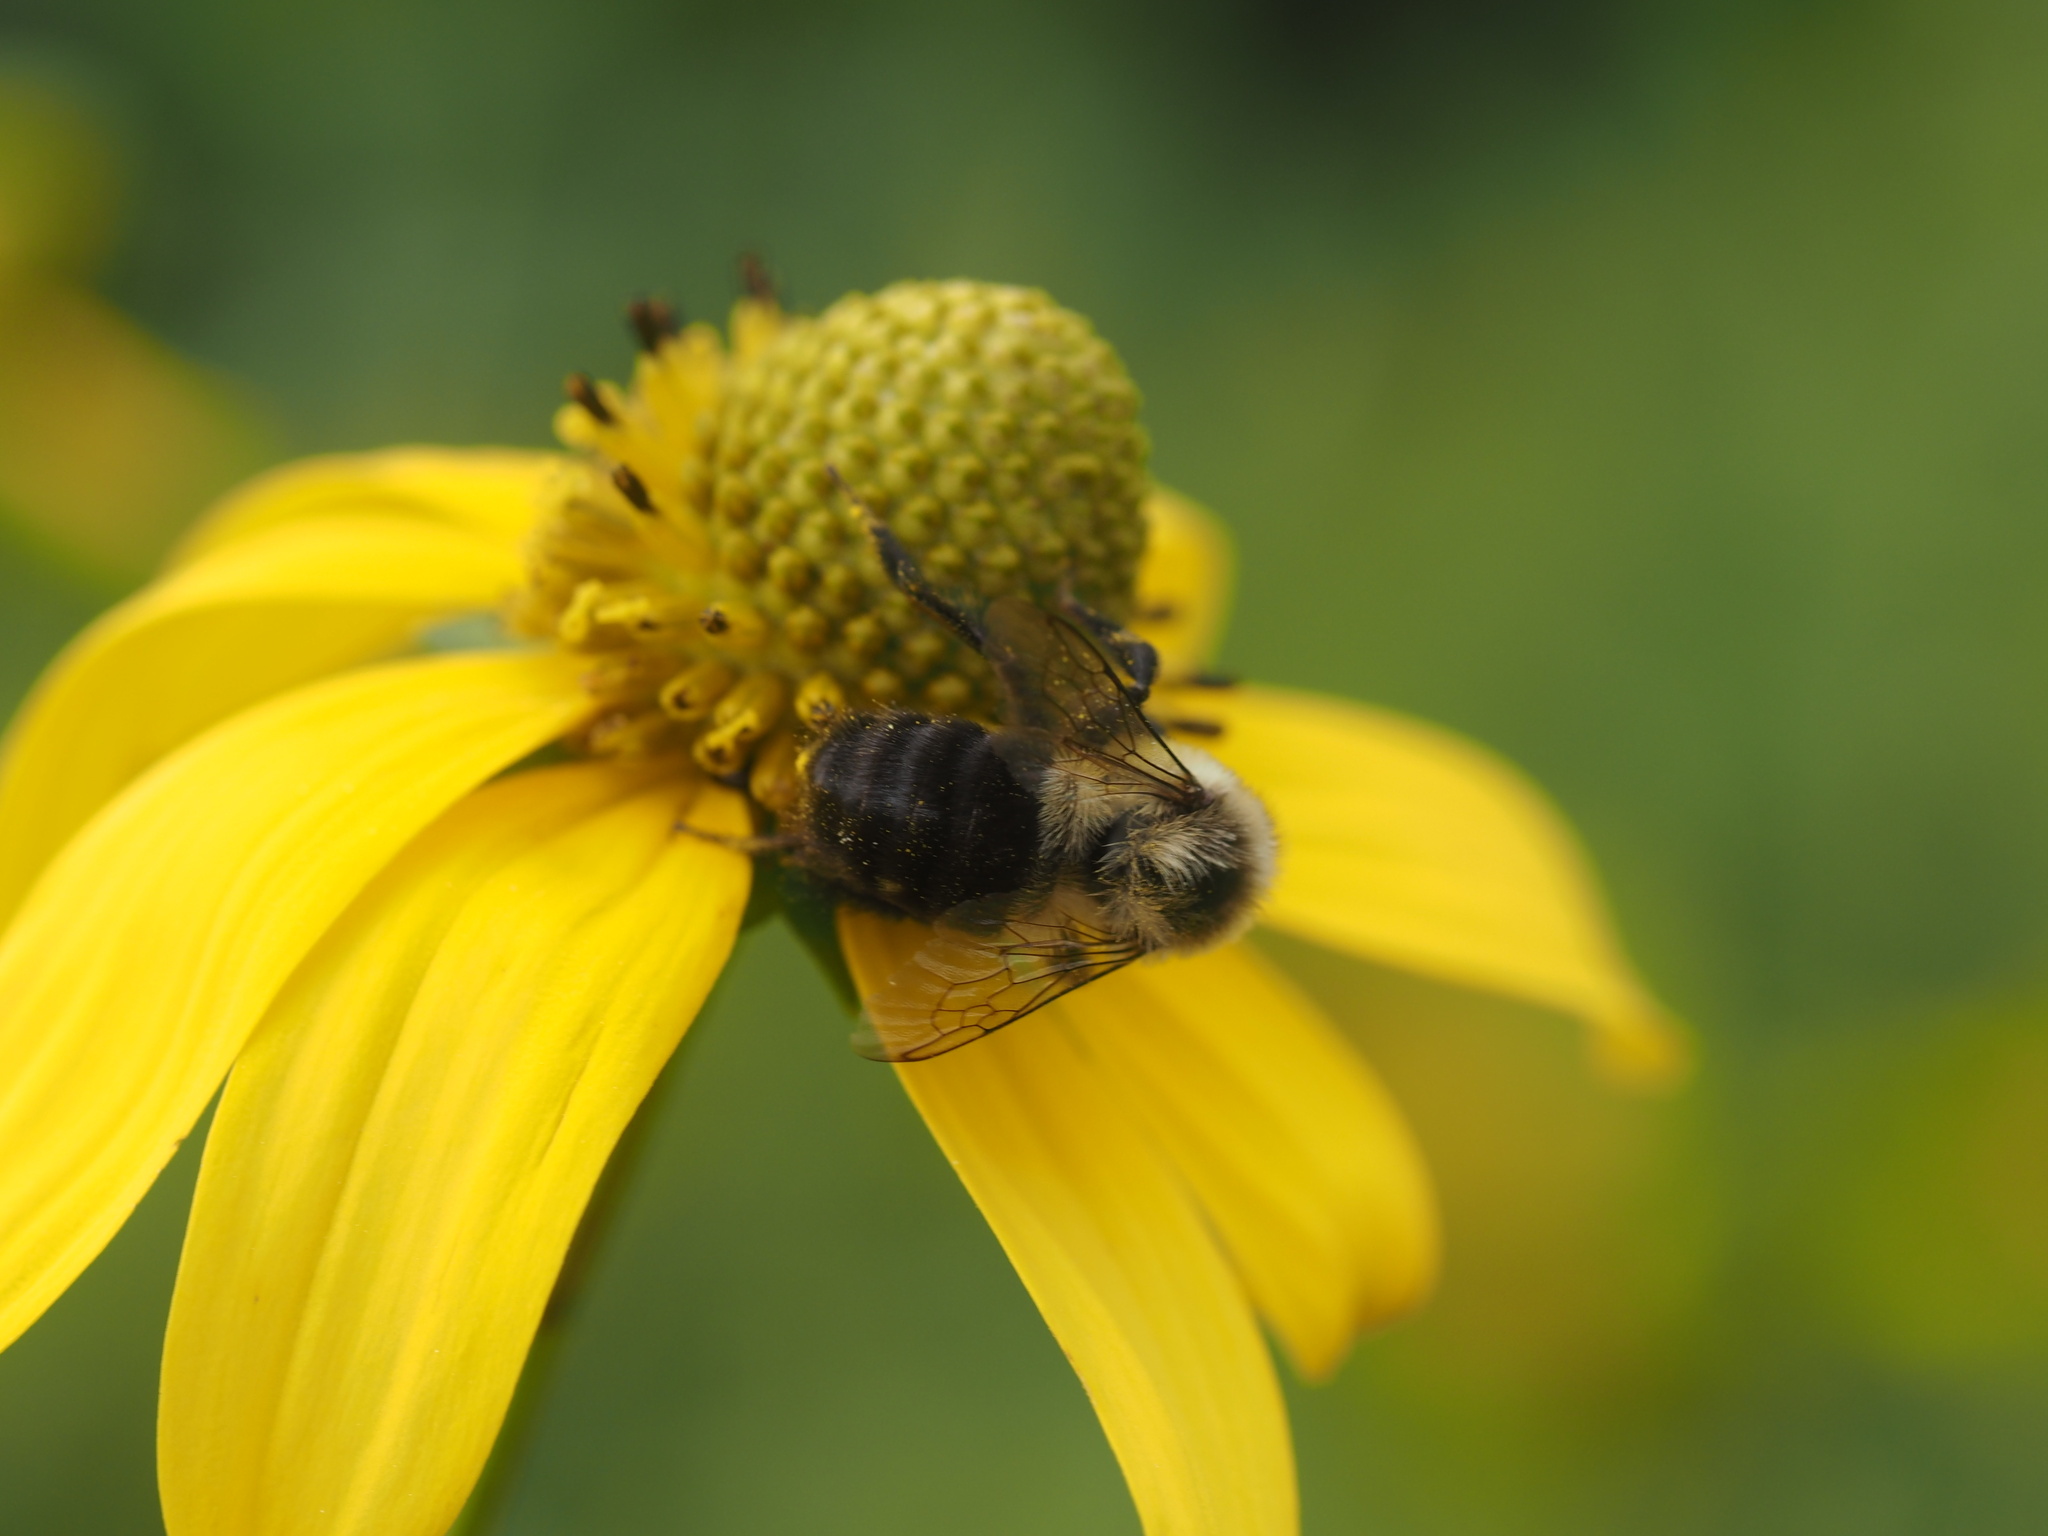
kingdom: Animalia
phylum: Arthropoda
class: Insecta
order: Hymenoptera
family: Apidae
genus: Bombus
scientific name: Bombus impatiens
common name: Common eastern bumble bee
